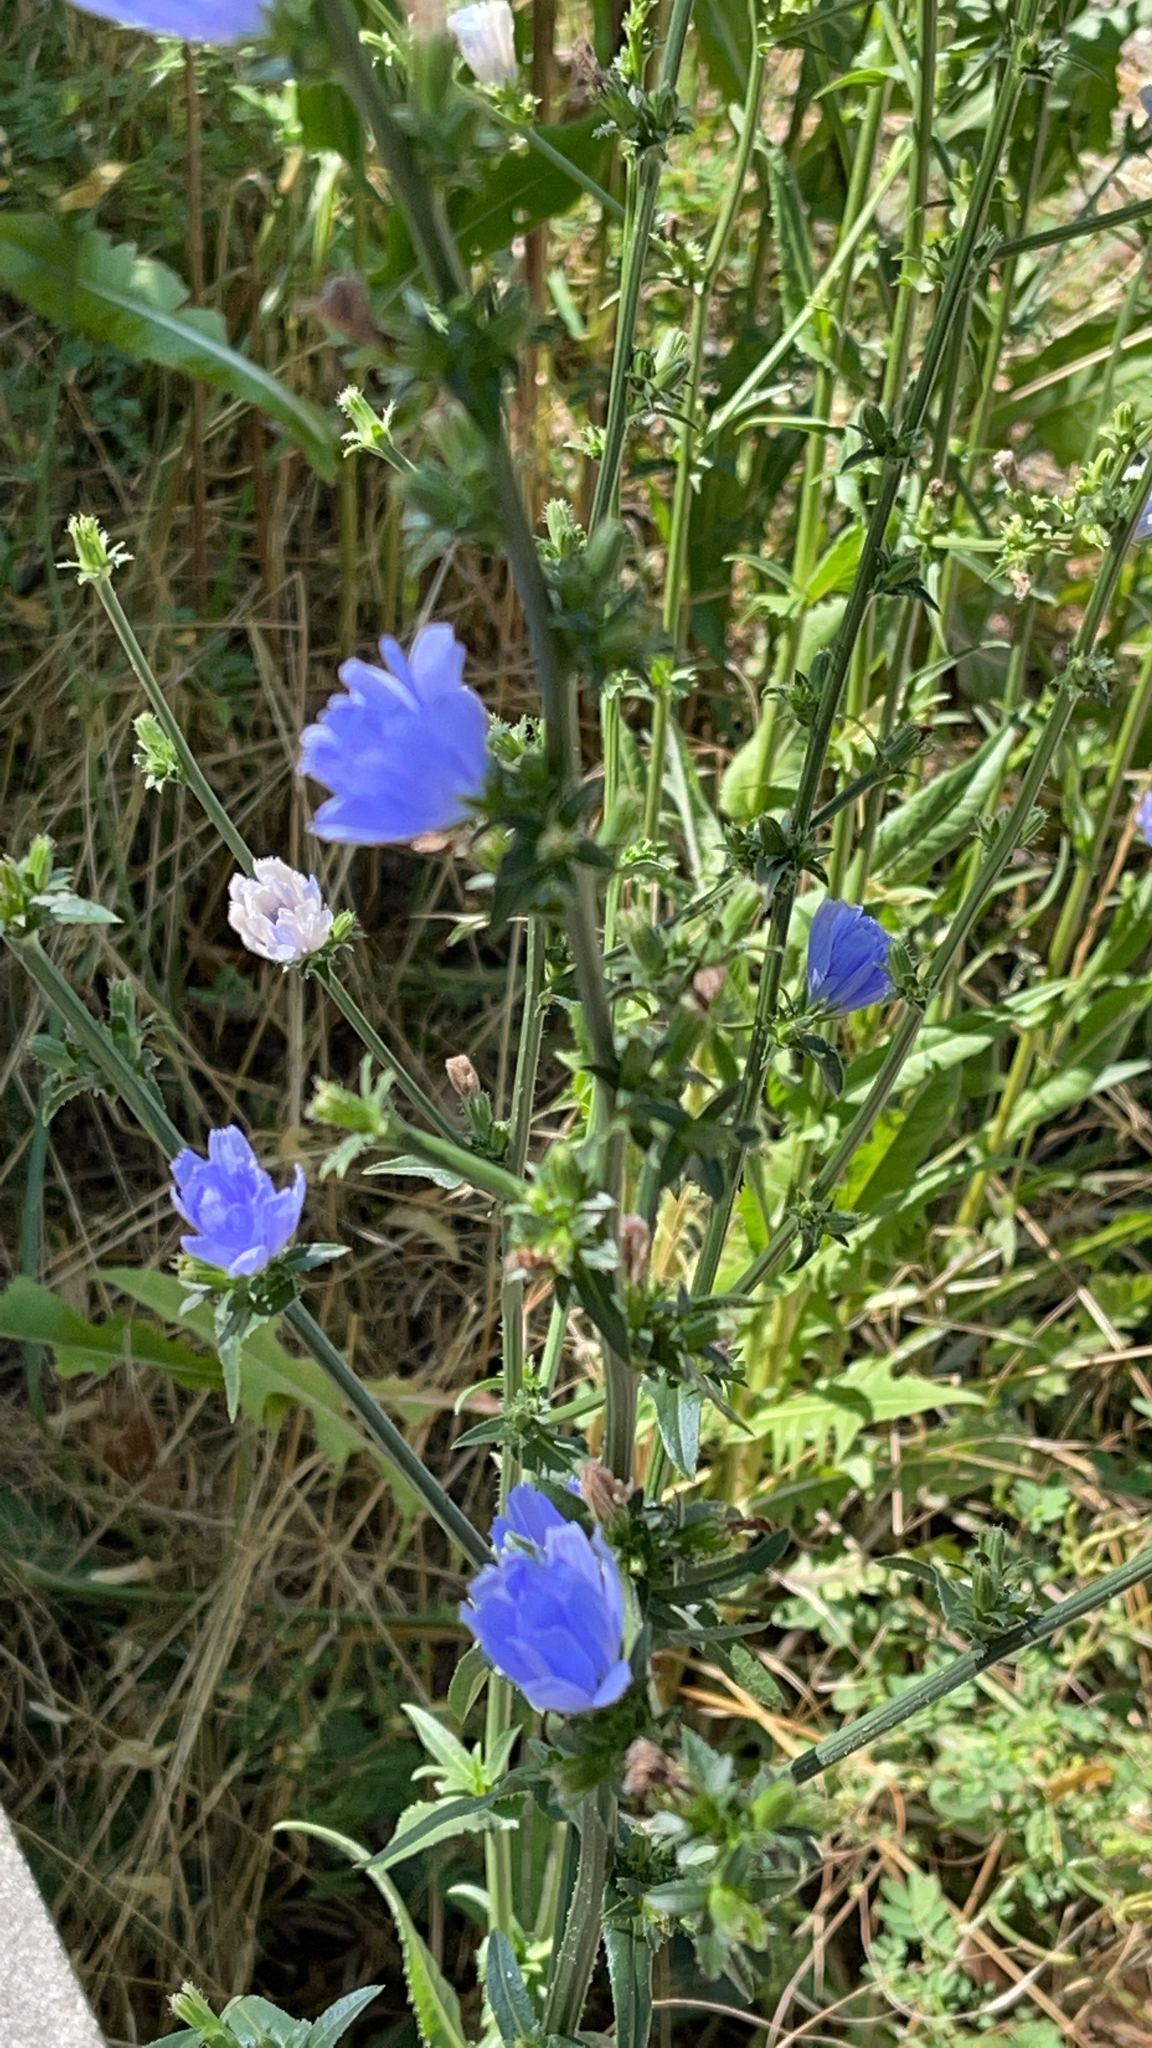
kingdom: Plantae
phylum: Tracheophyta
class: Magnoliopsida
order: Asterales
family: Asteraceae
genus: Cichorium
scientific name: Cichorium intybus
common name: Chicory
